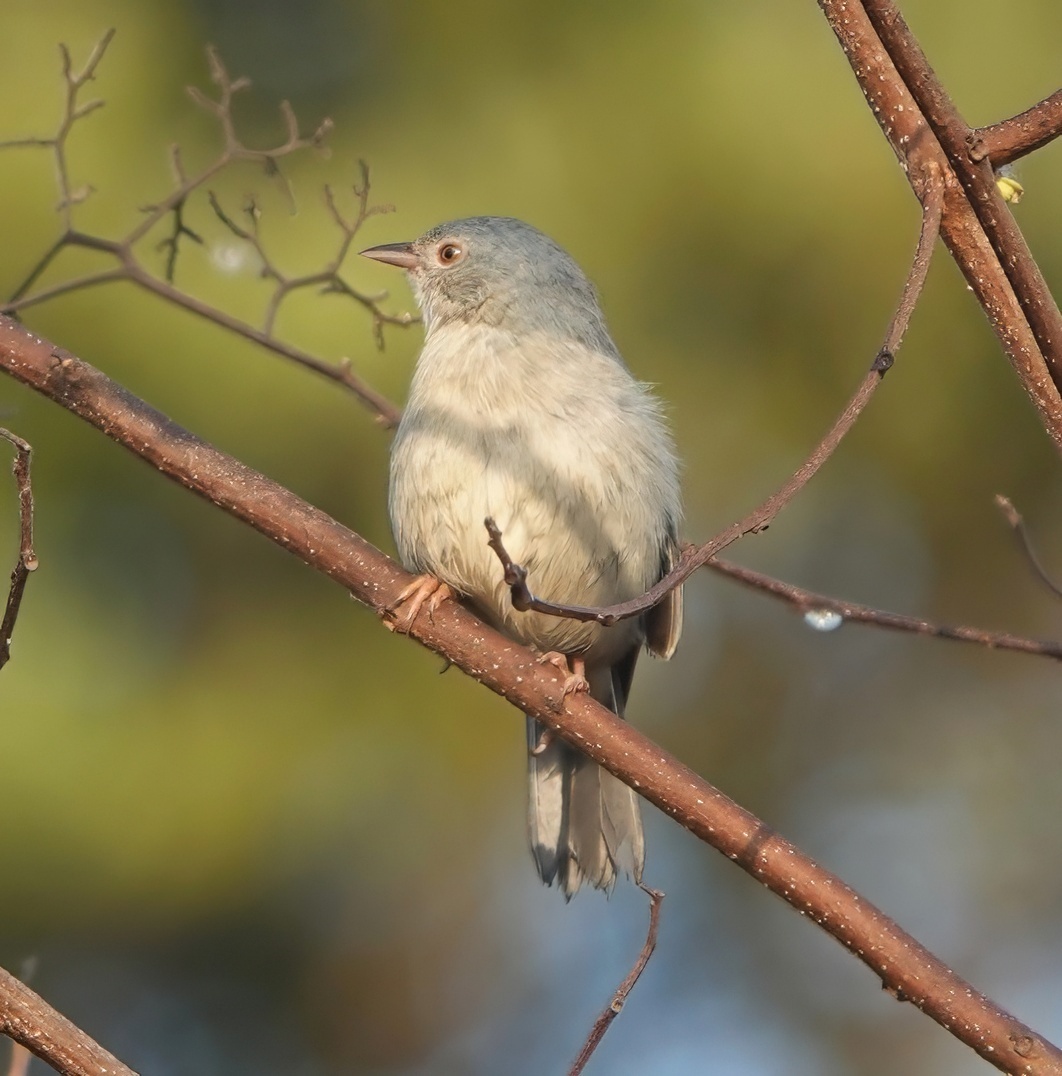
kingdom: Animalia
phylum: Chordata
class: Aves
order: Passeriformes
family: Thraupidae
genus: Conirostrum
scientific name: Conirostrum bicolor
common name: Bicolored conebill
